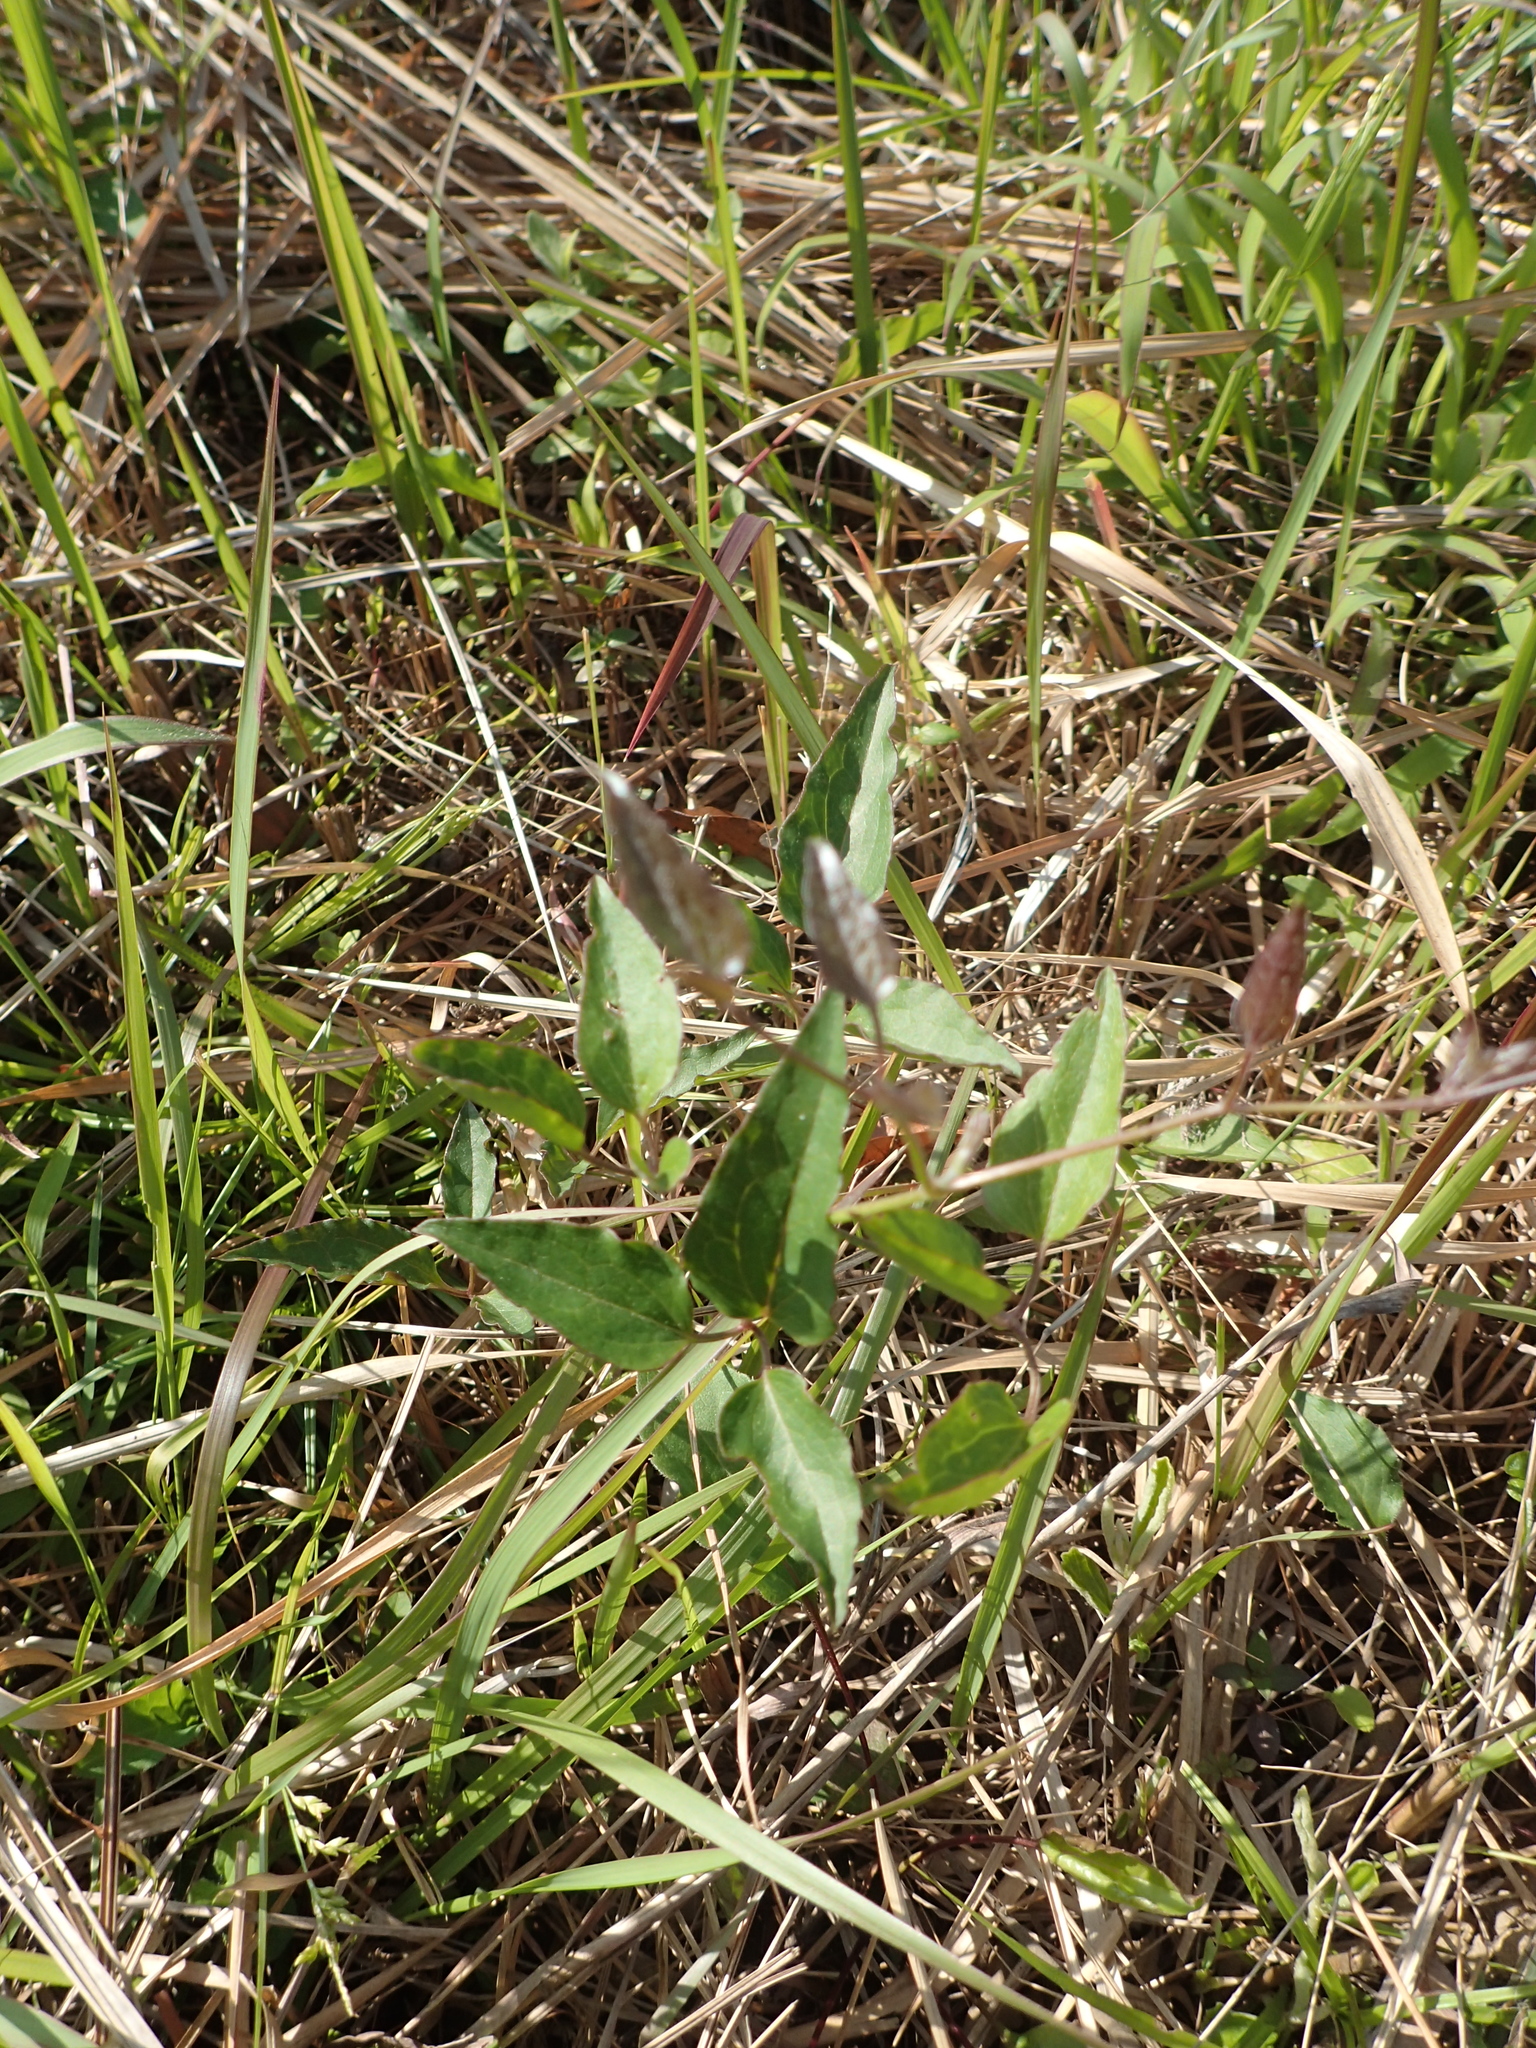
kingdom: Plantae
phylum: Tracheophyta
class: Magnoliopsida
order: Ranunculales
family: Ranunculaceae
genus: Clematis
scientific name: Clematis chinensis
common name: Chinese clematis
